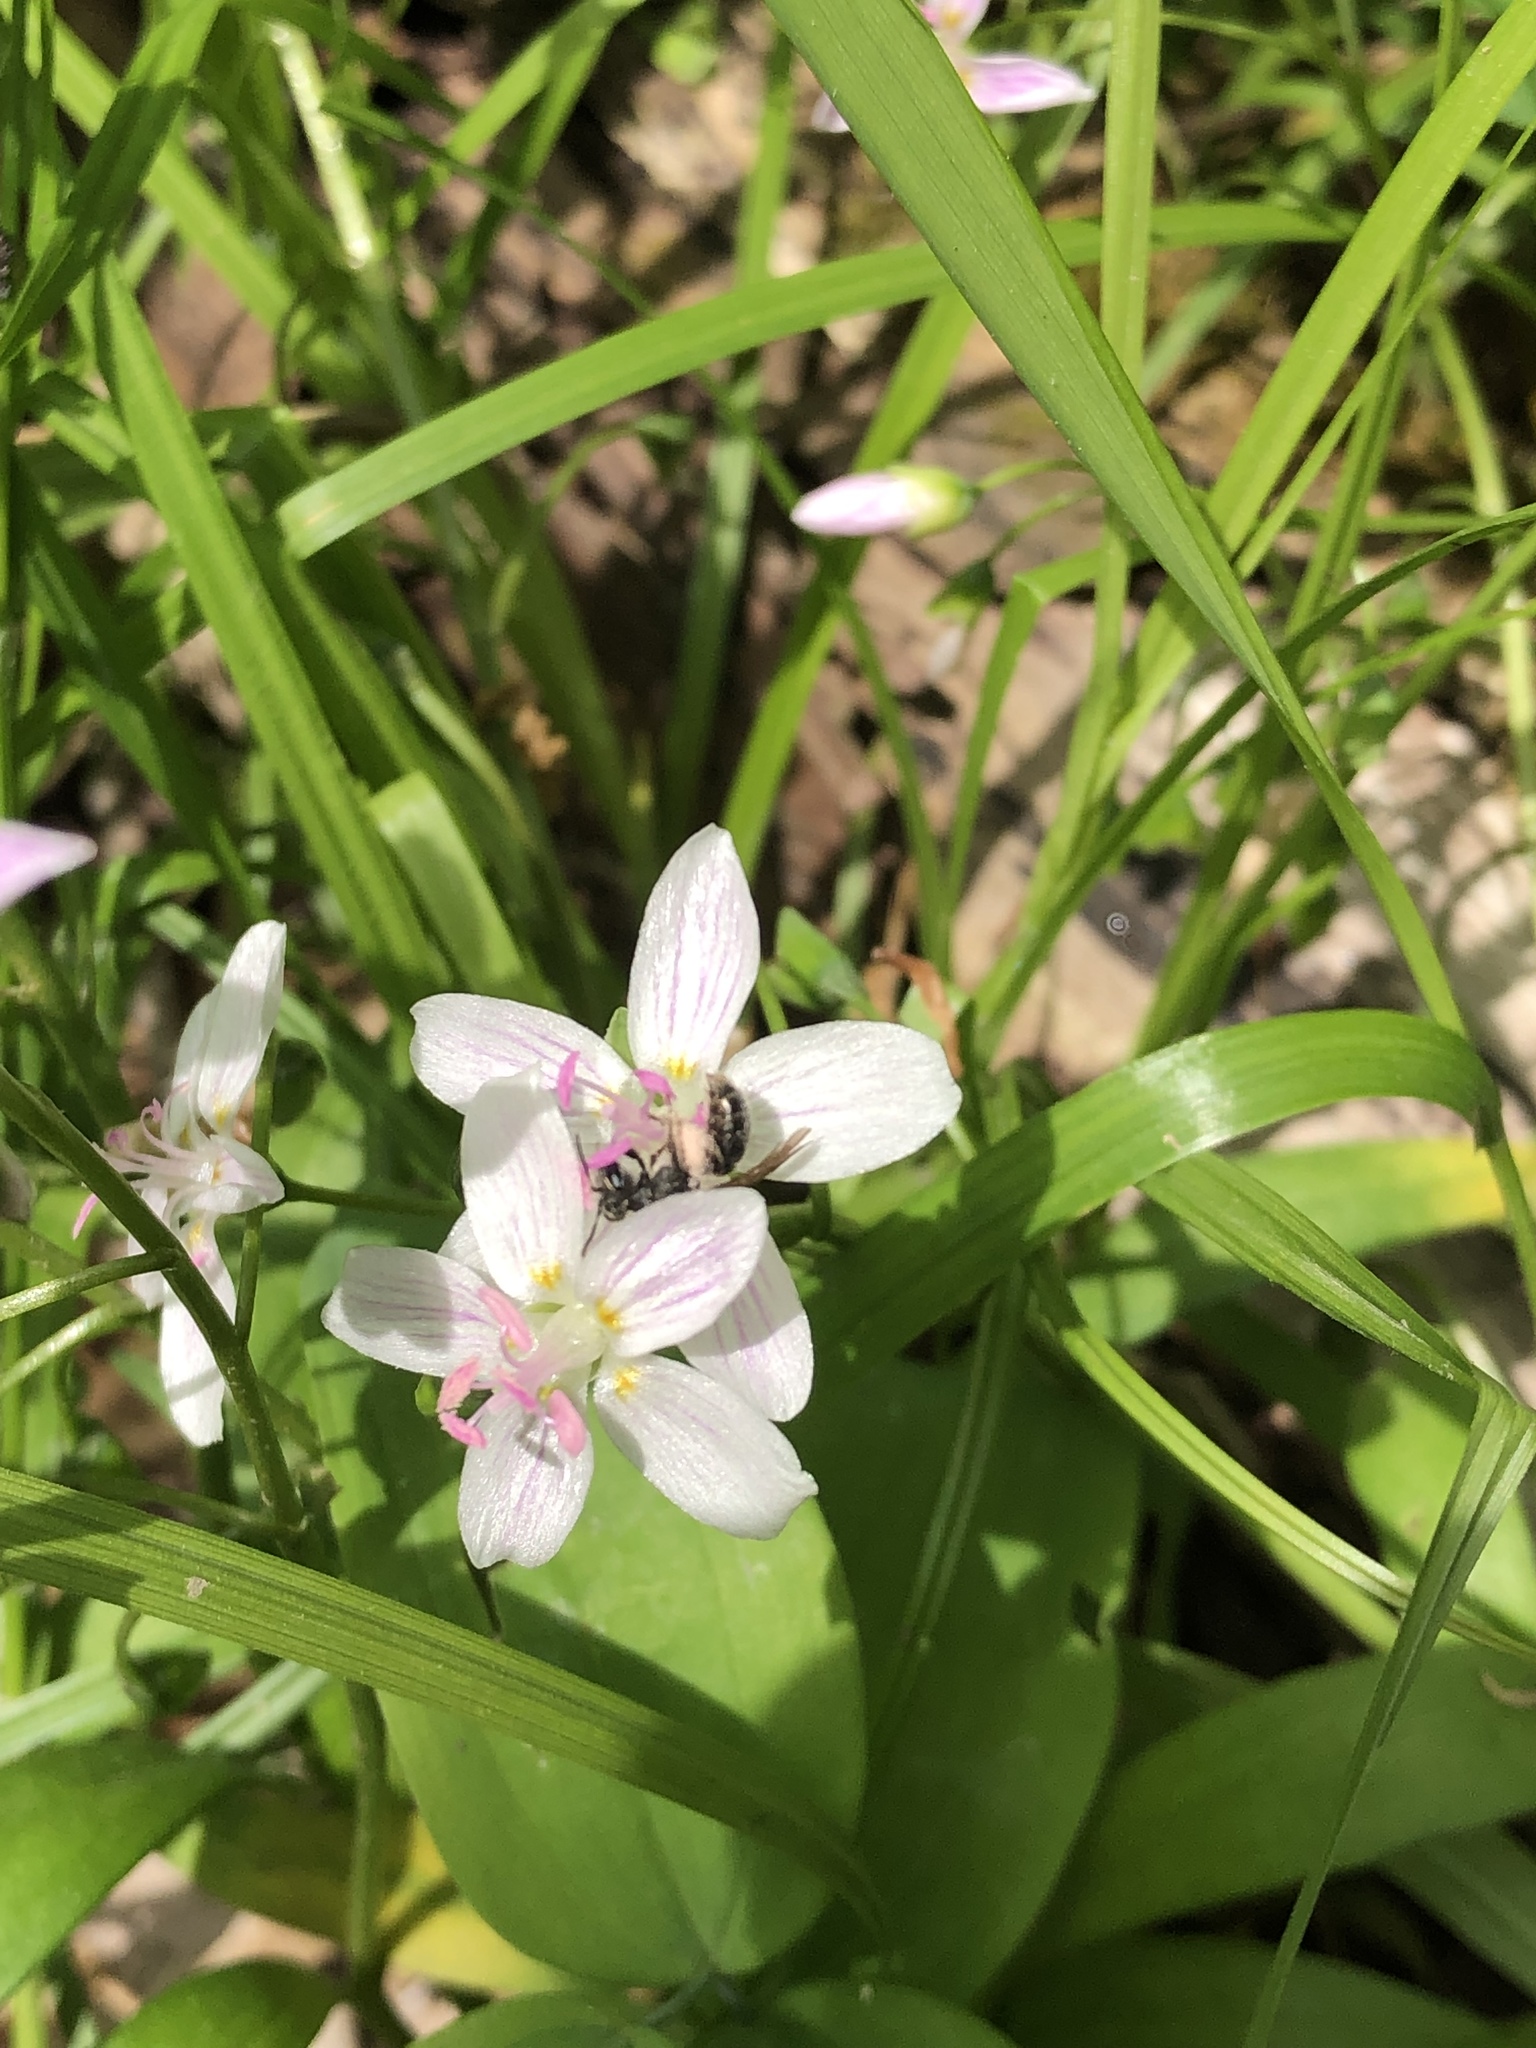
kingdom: Animalia
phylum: Arthropoda
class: Insecta
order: Hymenoptera
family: Andrenidae
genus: Andrena
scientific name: Andrena erigeniae
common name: Spring beauty miner
